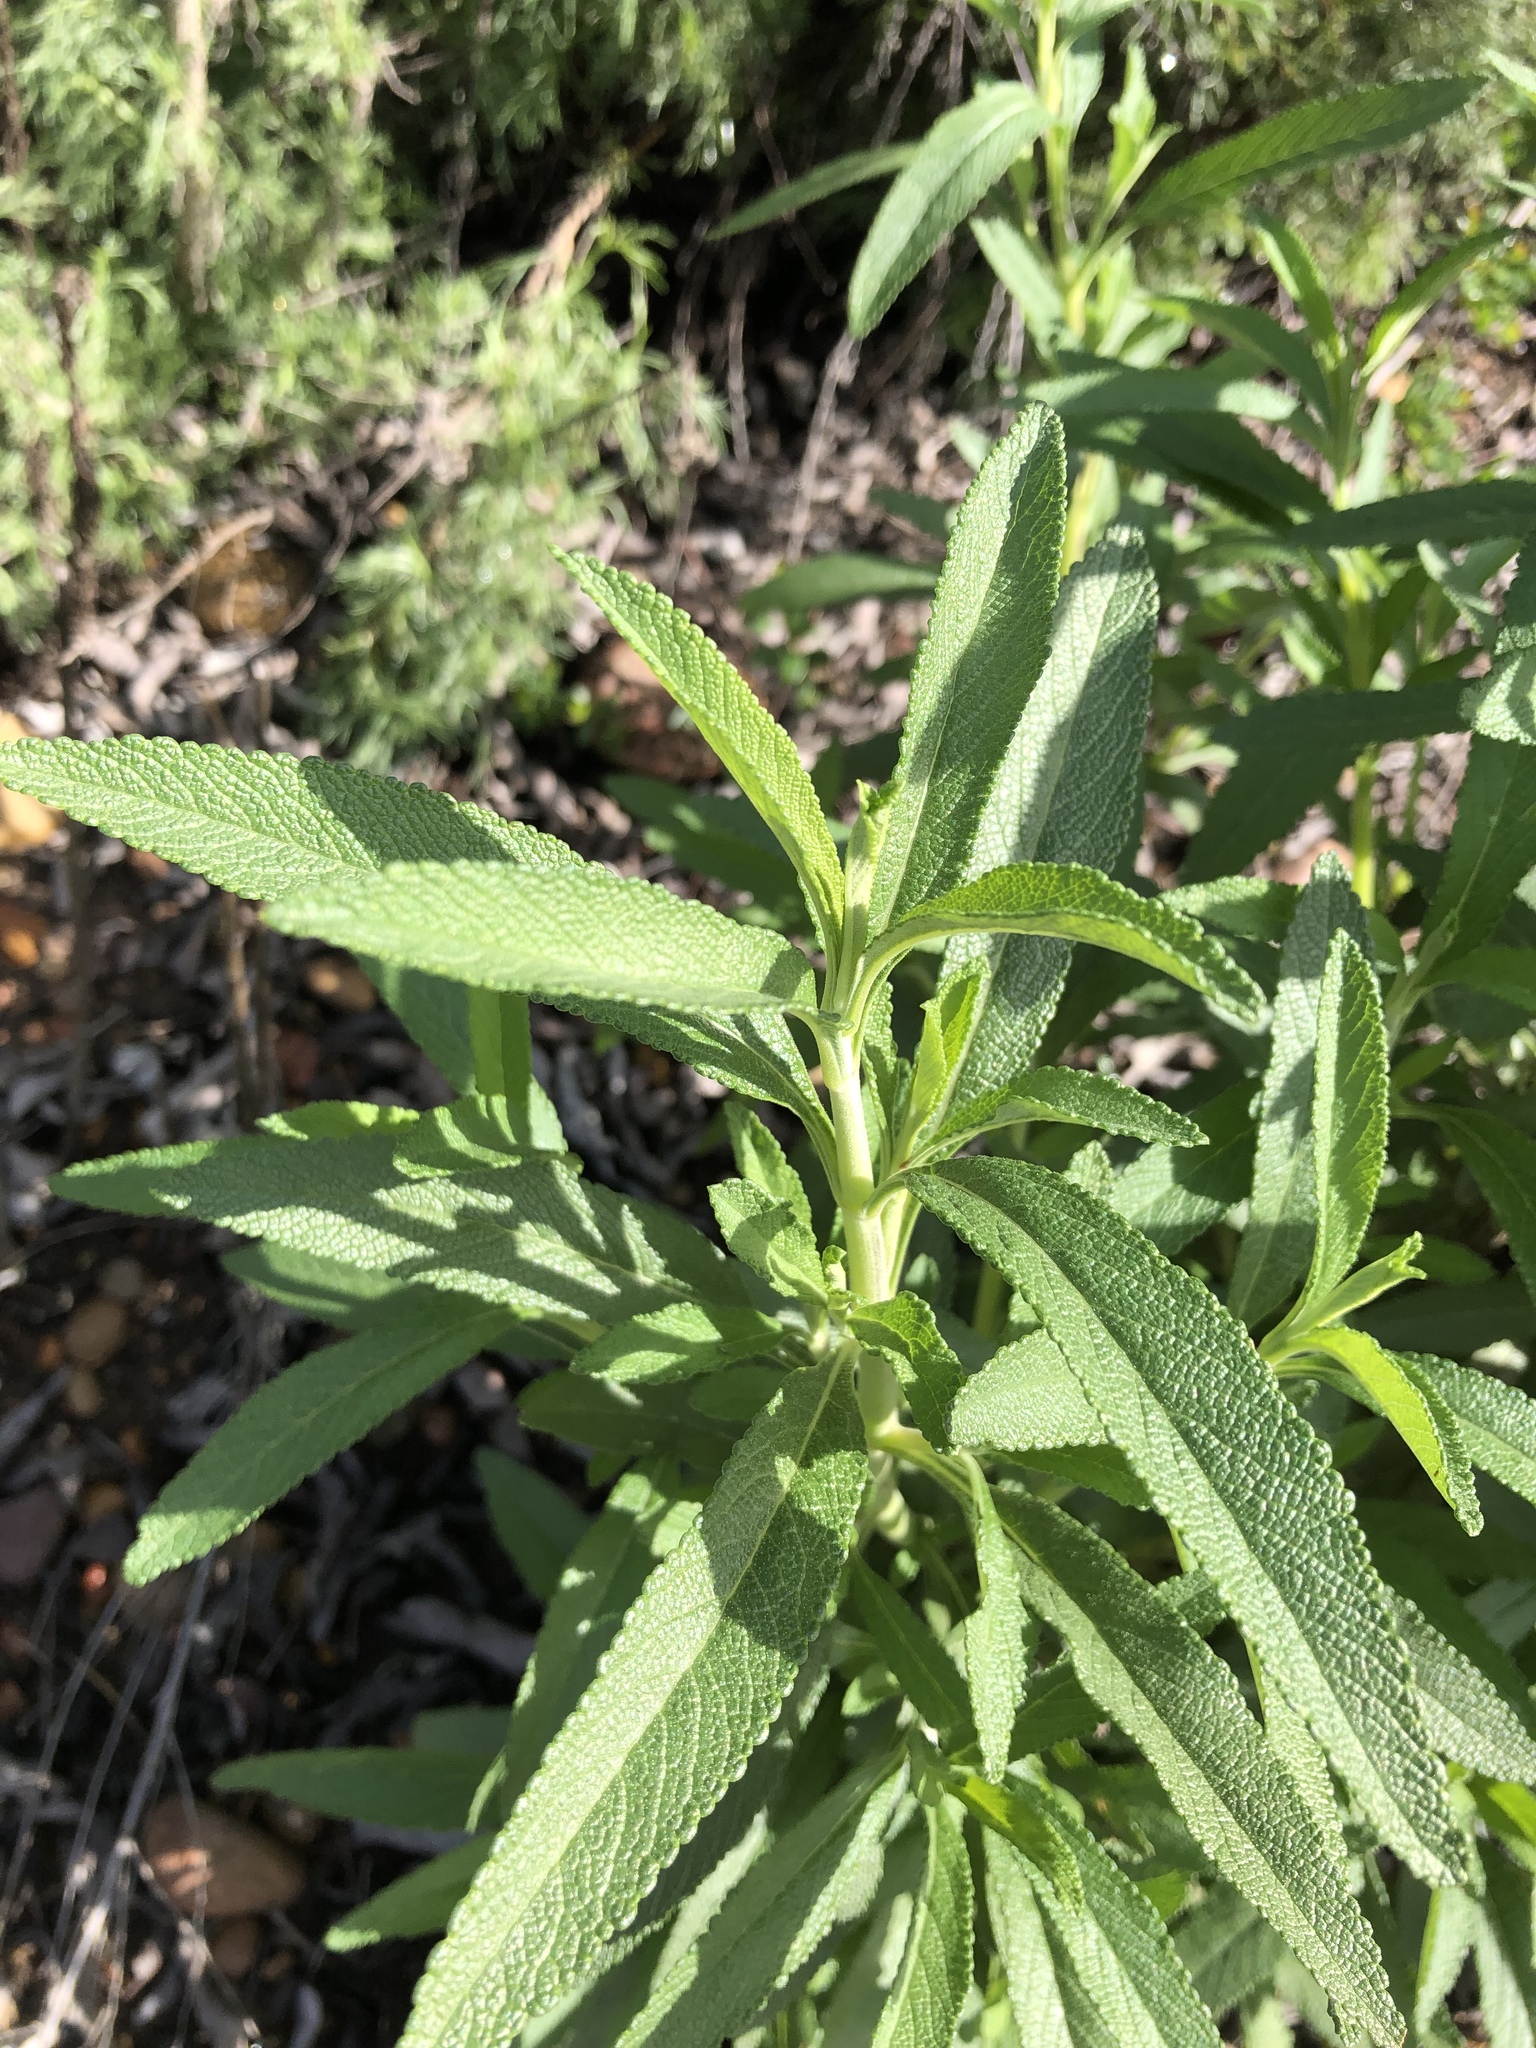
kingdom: Plantae
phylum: Tracheophyta
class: Magnoliopsida
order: Lamiales
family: Lamiaceae
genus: Salvia
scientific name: Salvia mellifera
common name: Black sage
